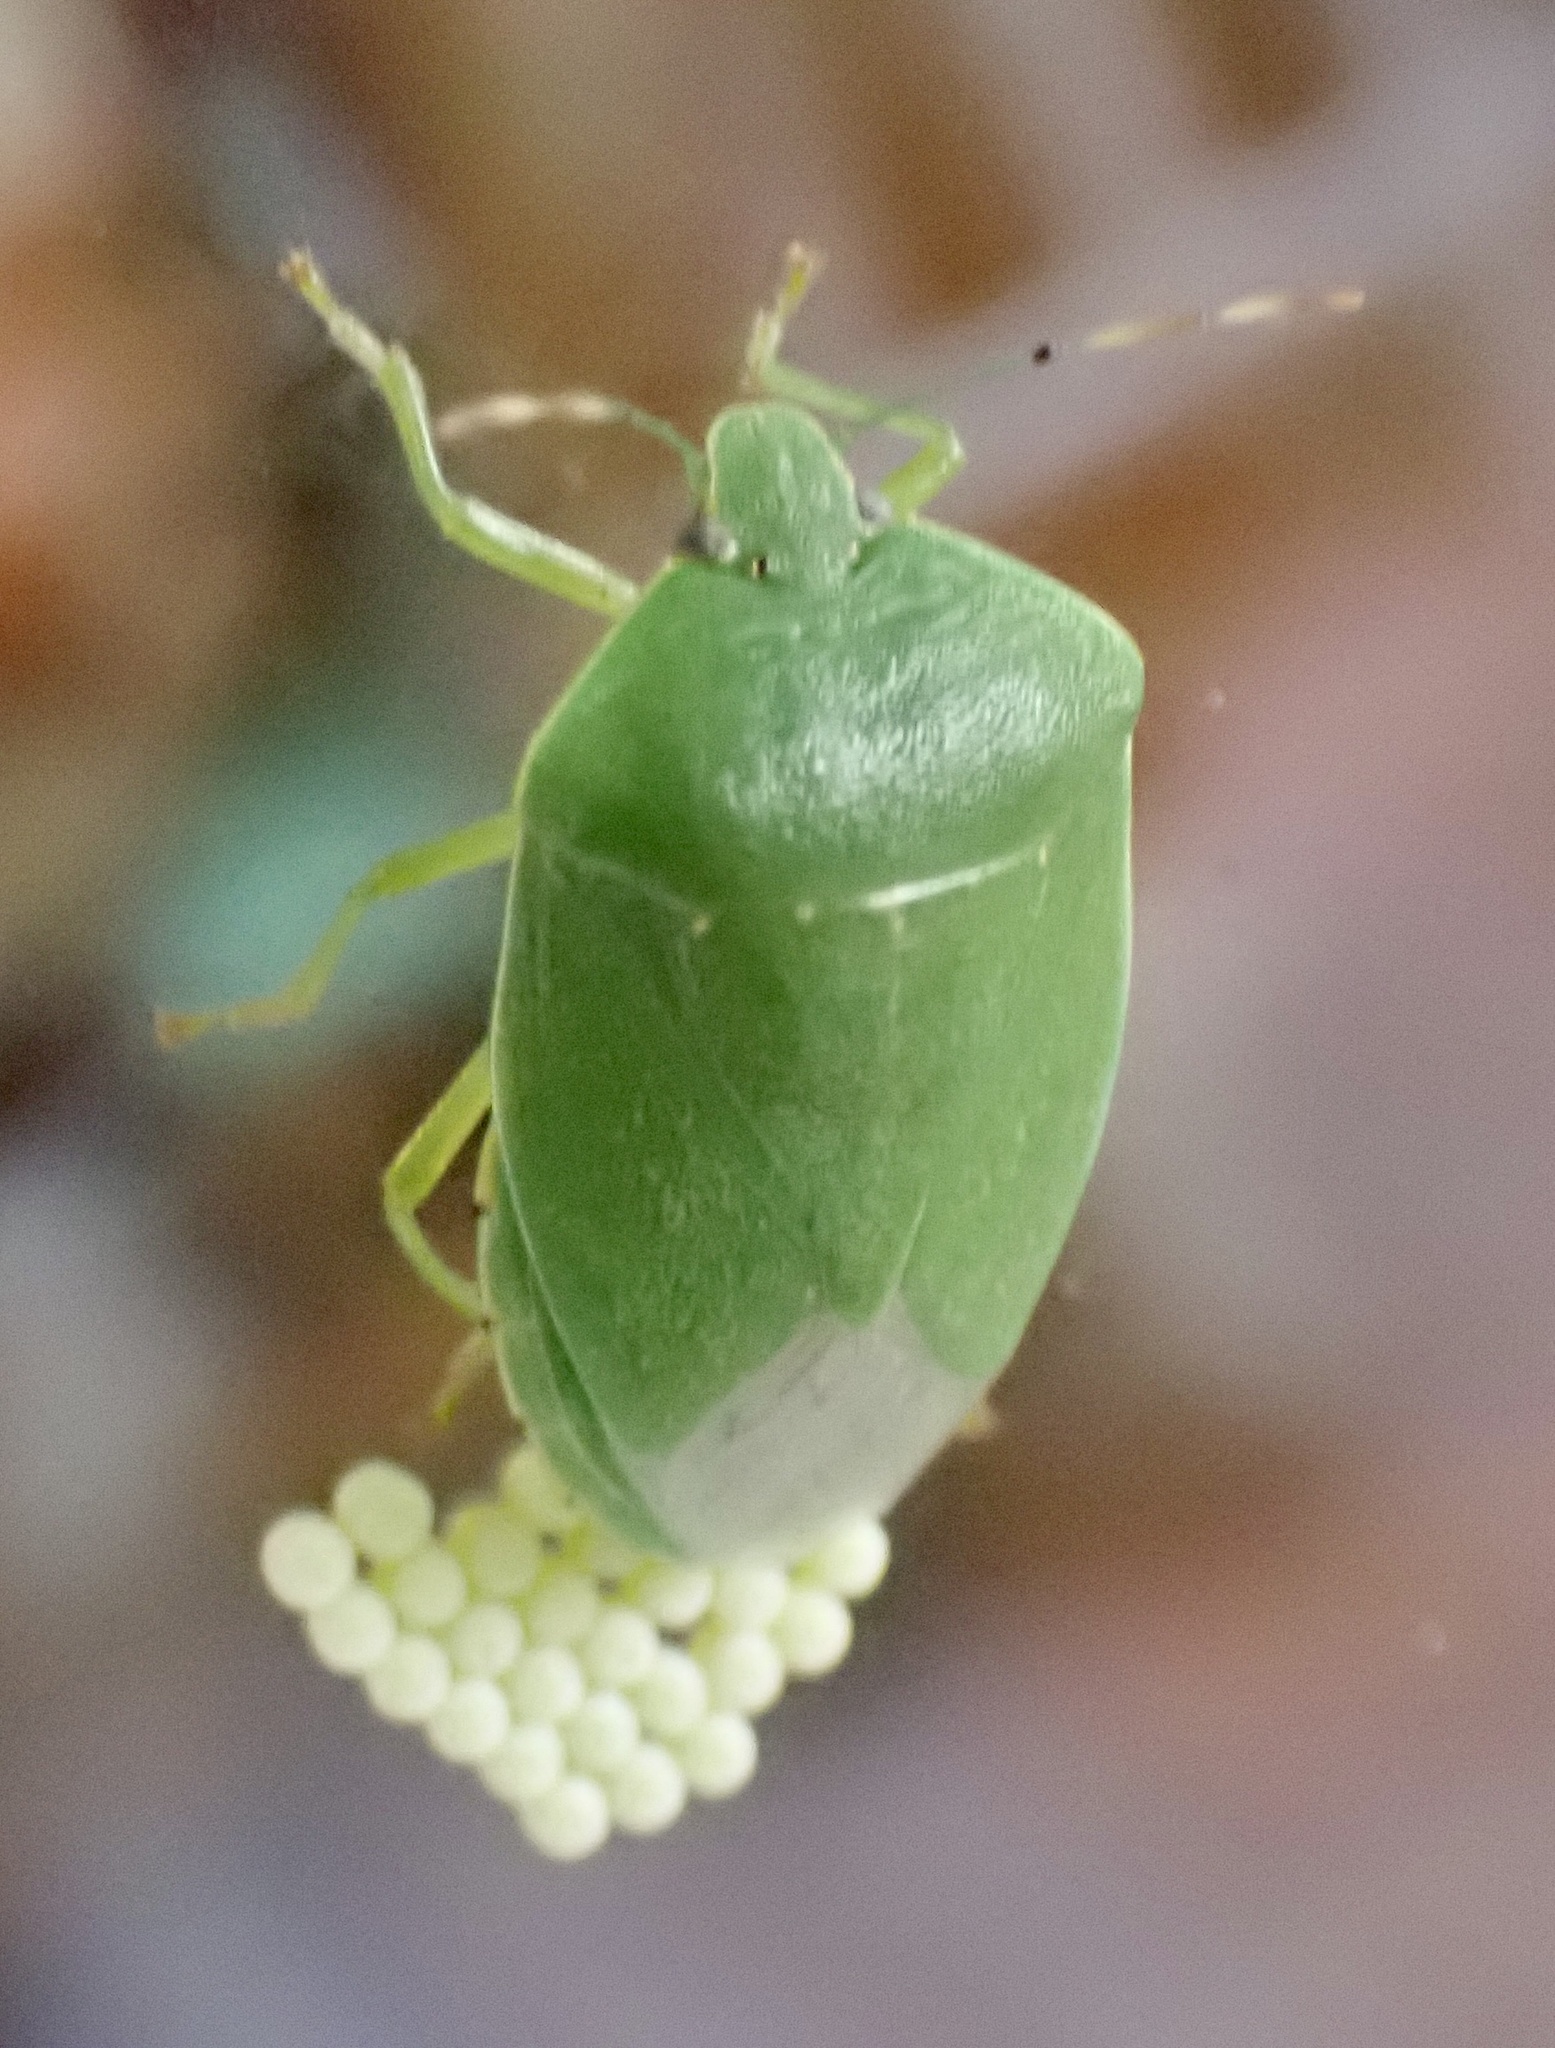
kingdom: Animalia
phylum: Arthropoda
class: Insecta
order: Hemiptera
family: Pentatomidae
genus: Chinavia
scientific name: Chinavia hilaris
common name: Green stink bug
